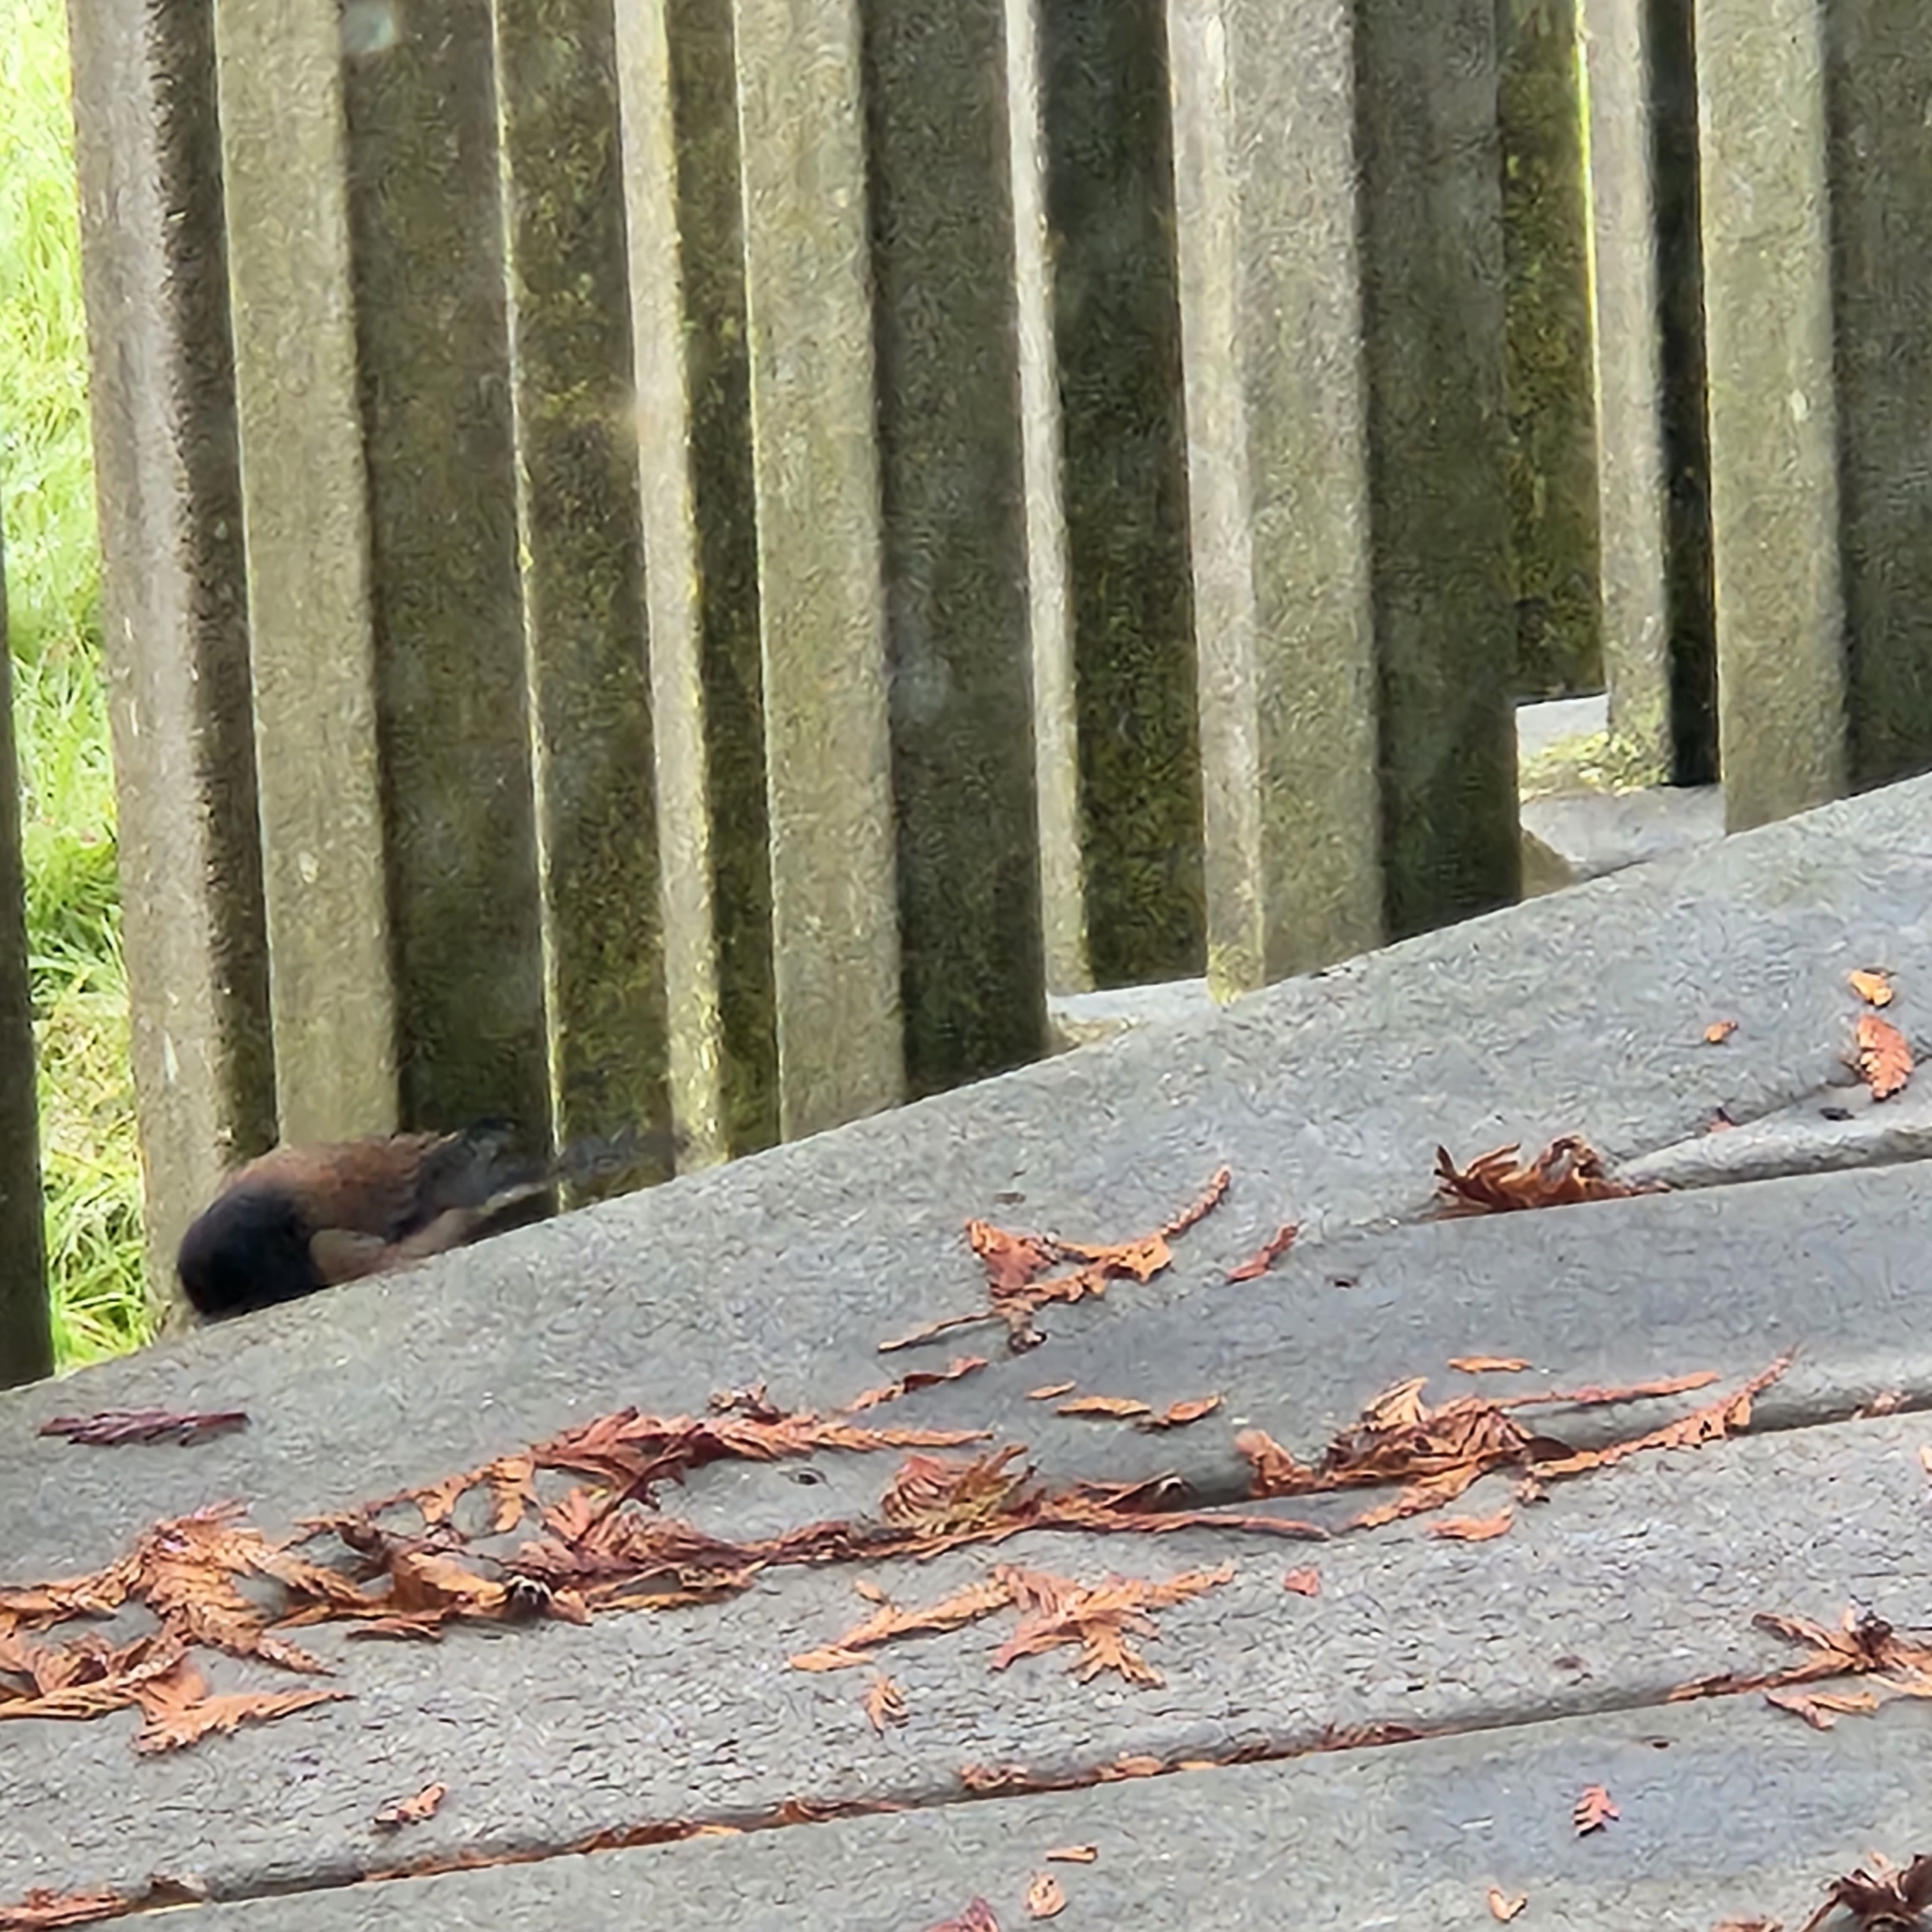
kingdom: Animalia
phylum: Chordata
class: Aves
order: Passeriformes
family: Passerellidae
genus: Junco
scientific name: Junco hyemalis
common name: Dark-eyed junco
